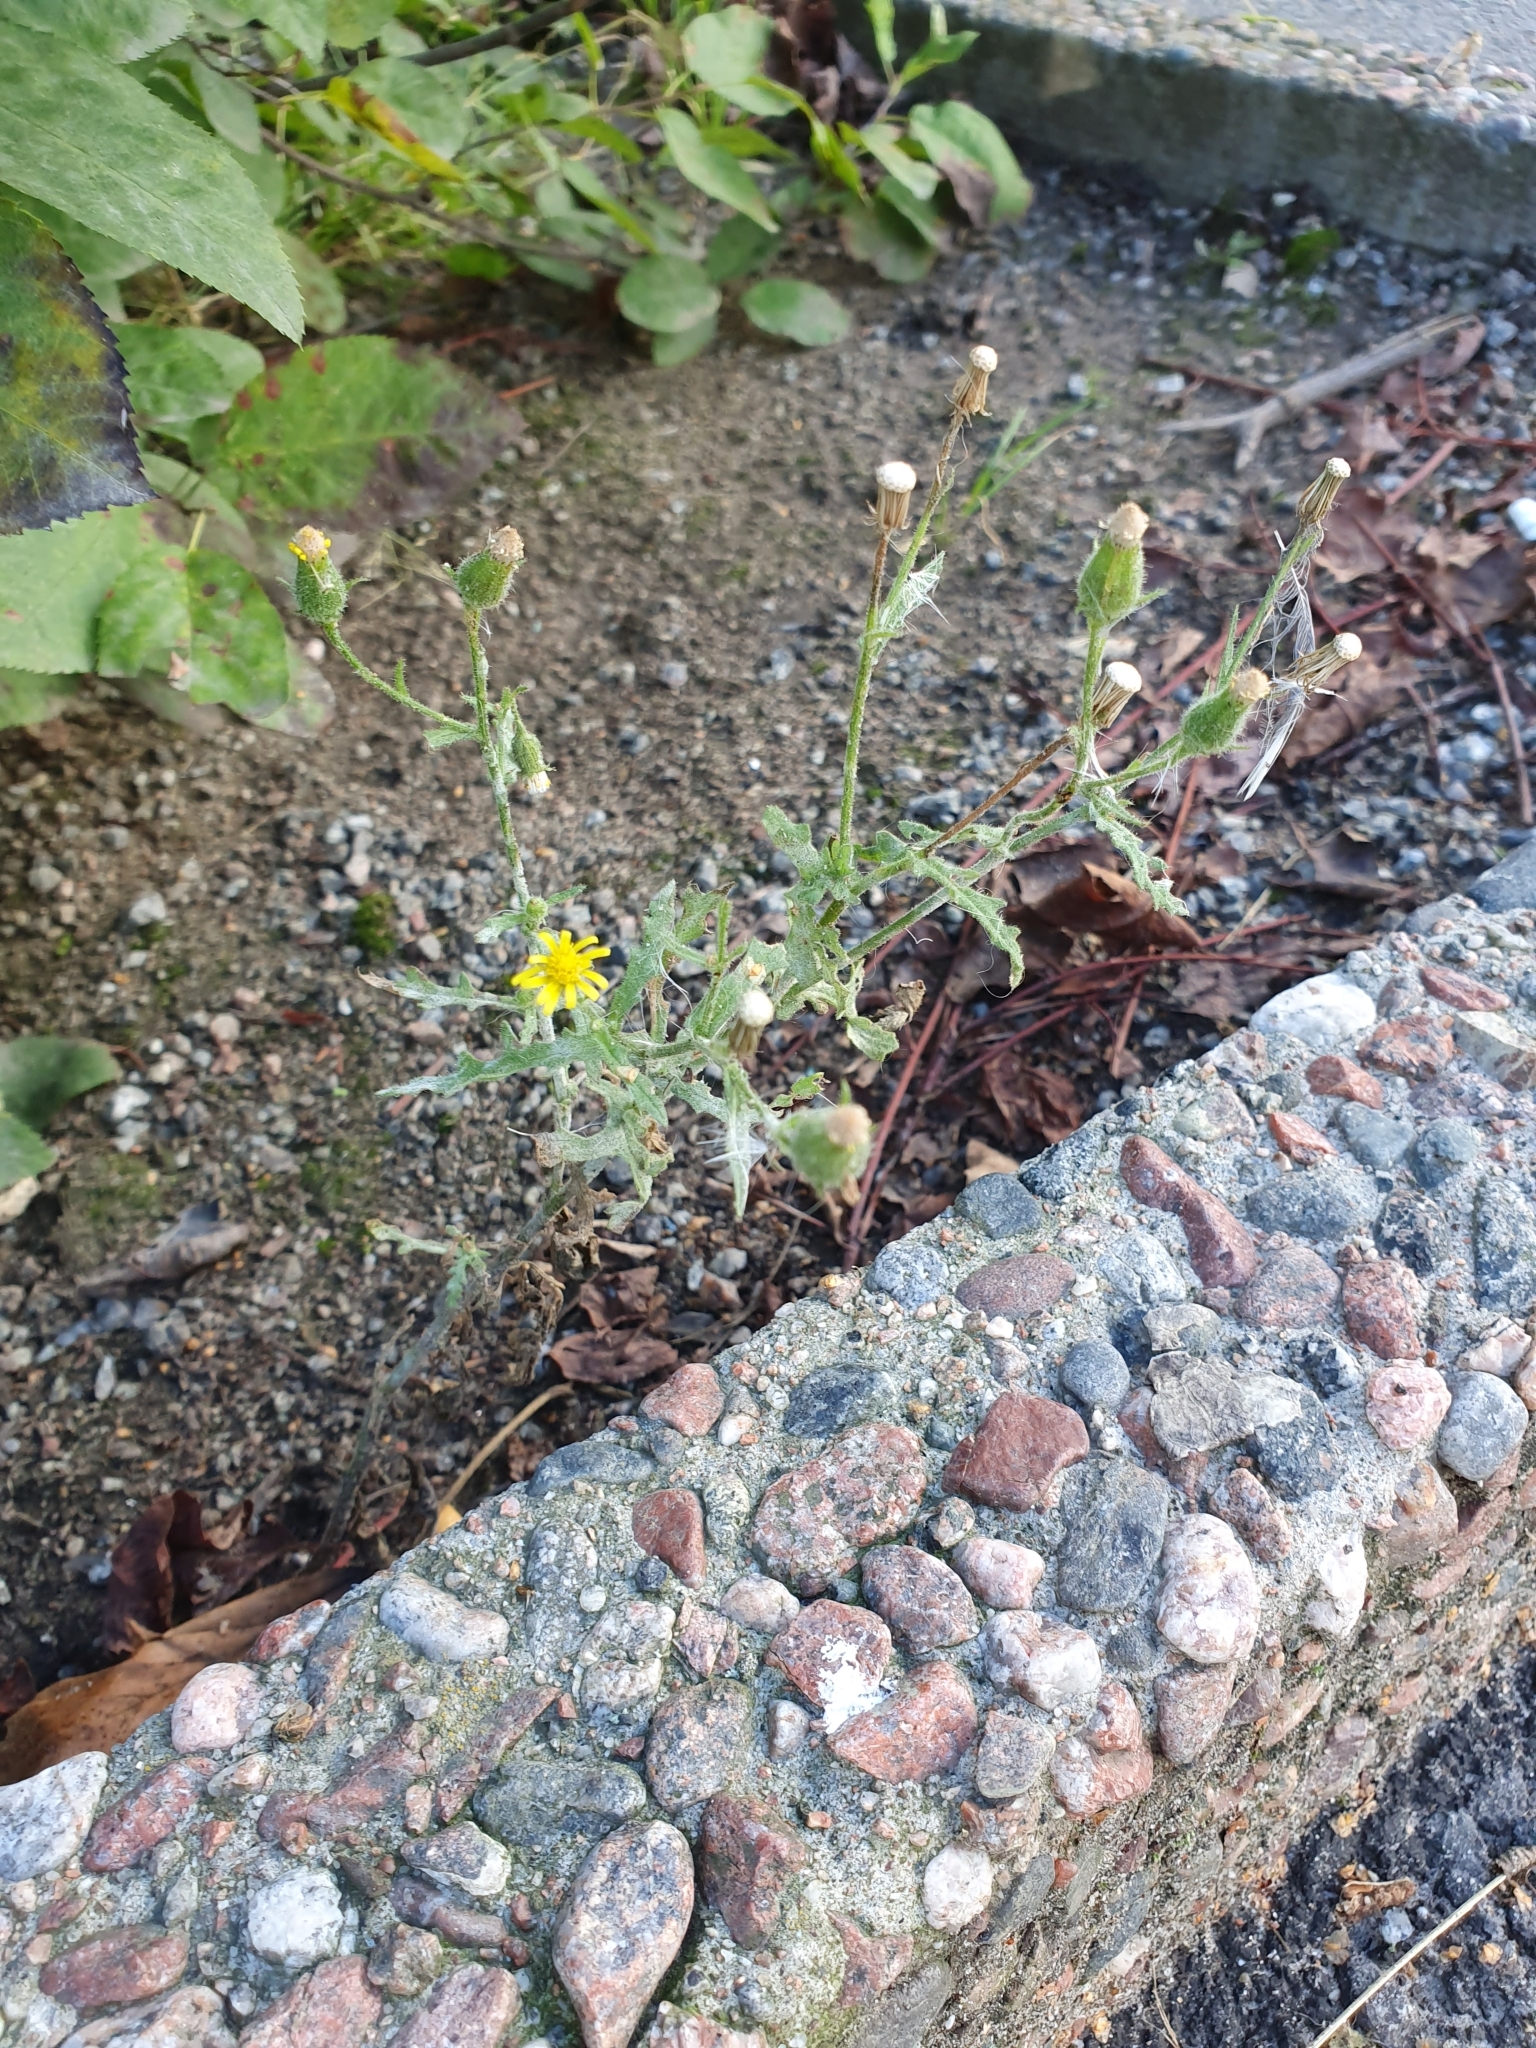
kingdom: Plantae
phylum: Tracheophyta
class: Magnoliopsida
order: Asterales
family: Asteraceae
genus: Senecio
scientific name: Senecio viscosus
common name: Sticky groundsel
